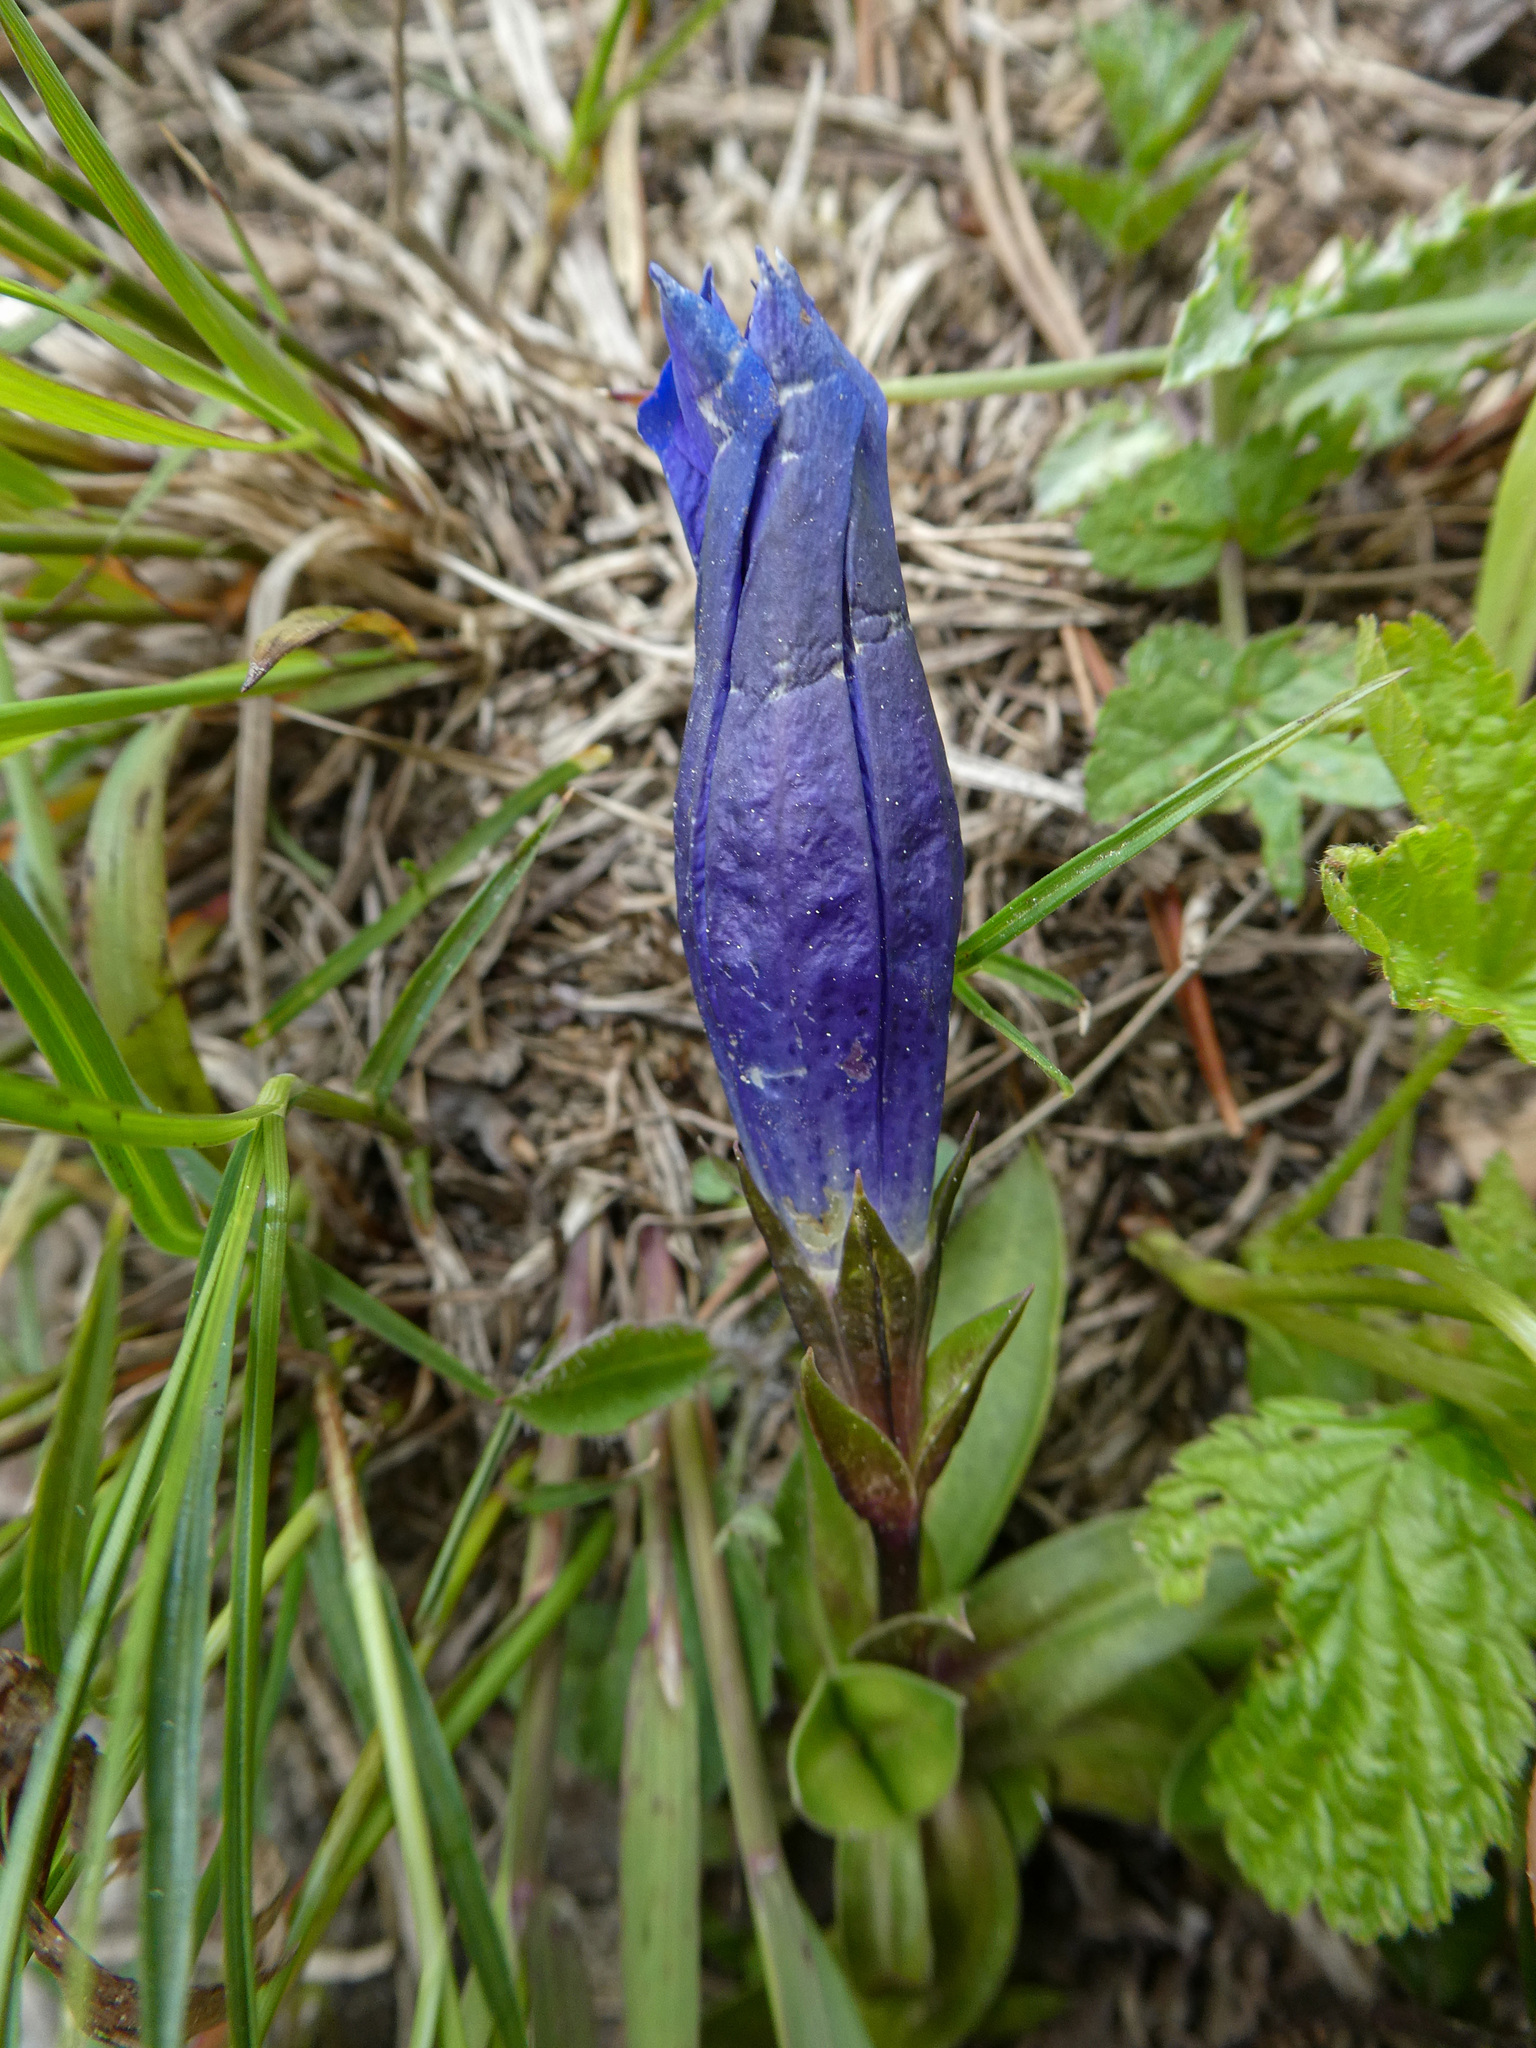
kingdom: Plantae
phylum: Tracheophyta
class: Magnoliopsida
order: Gentianales
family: Gentianaceae
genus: Gentiana
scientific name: Gentiana clusii
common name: Trumpet gentian
